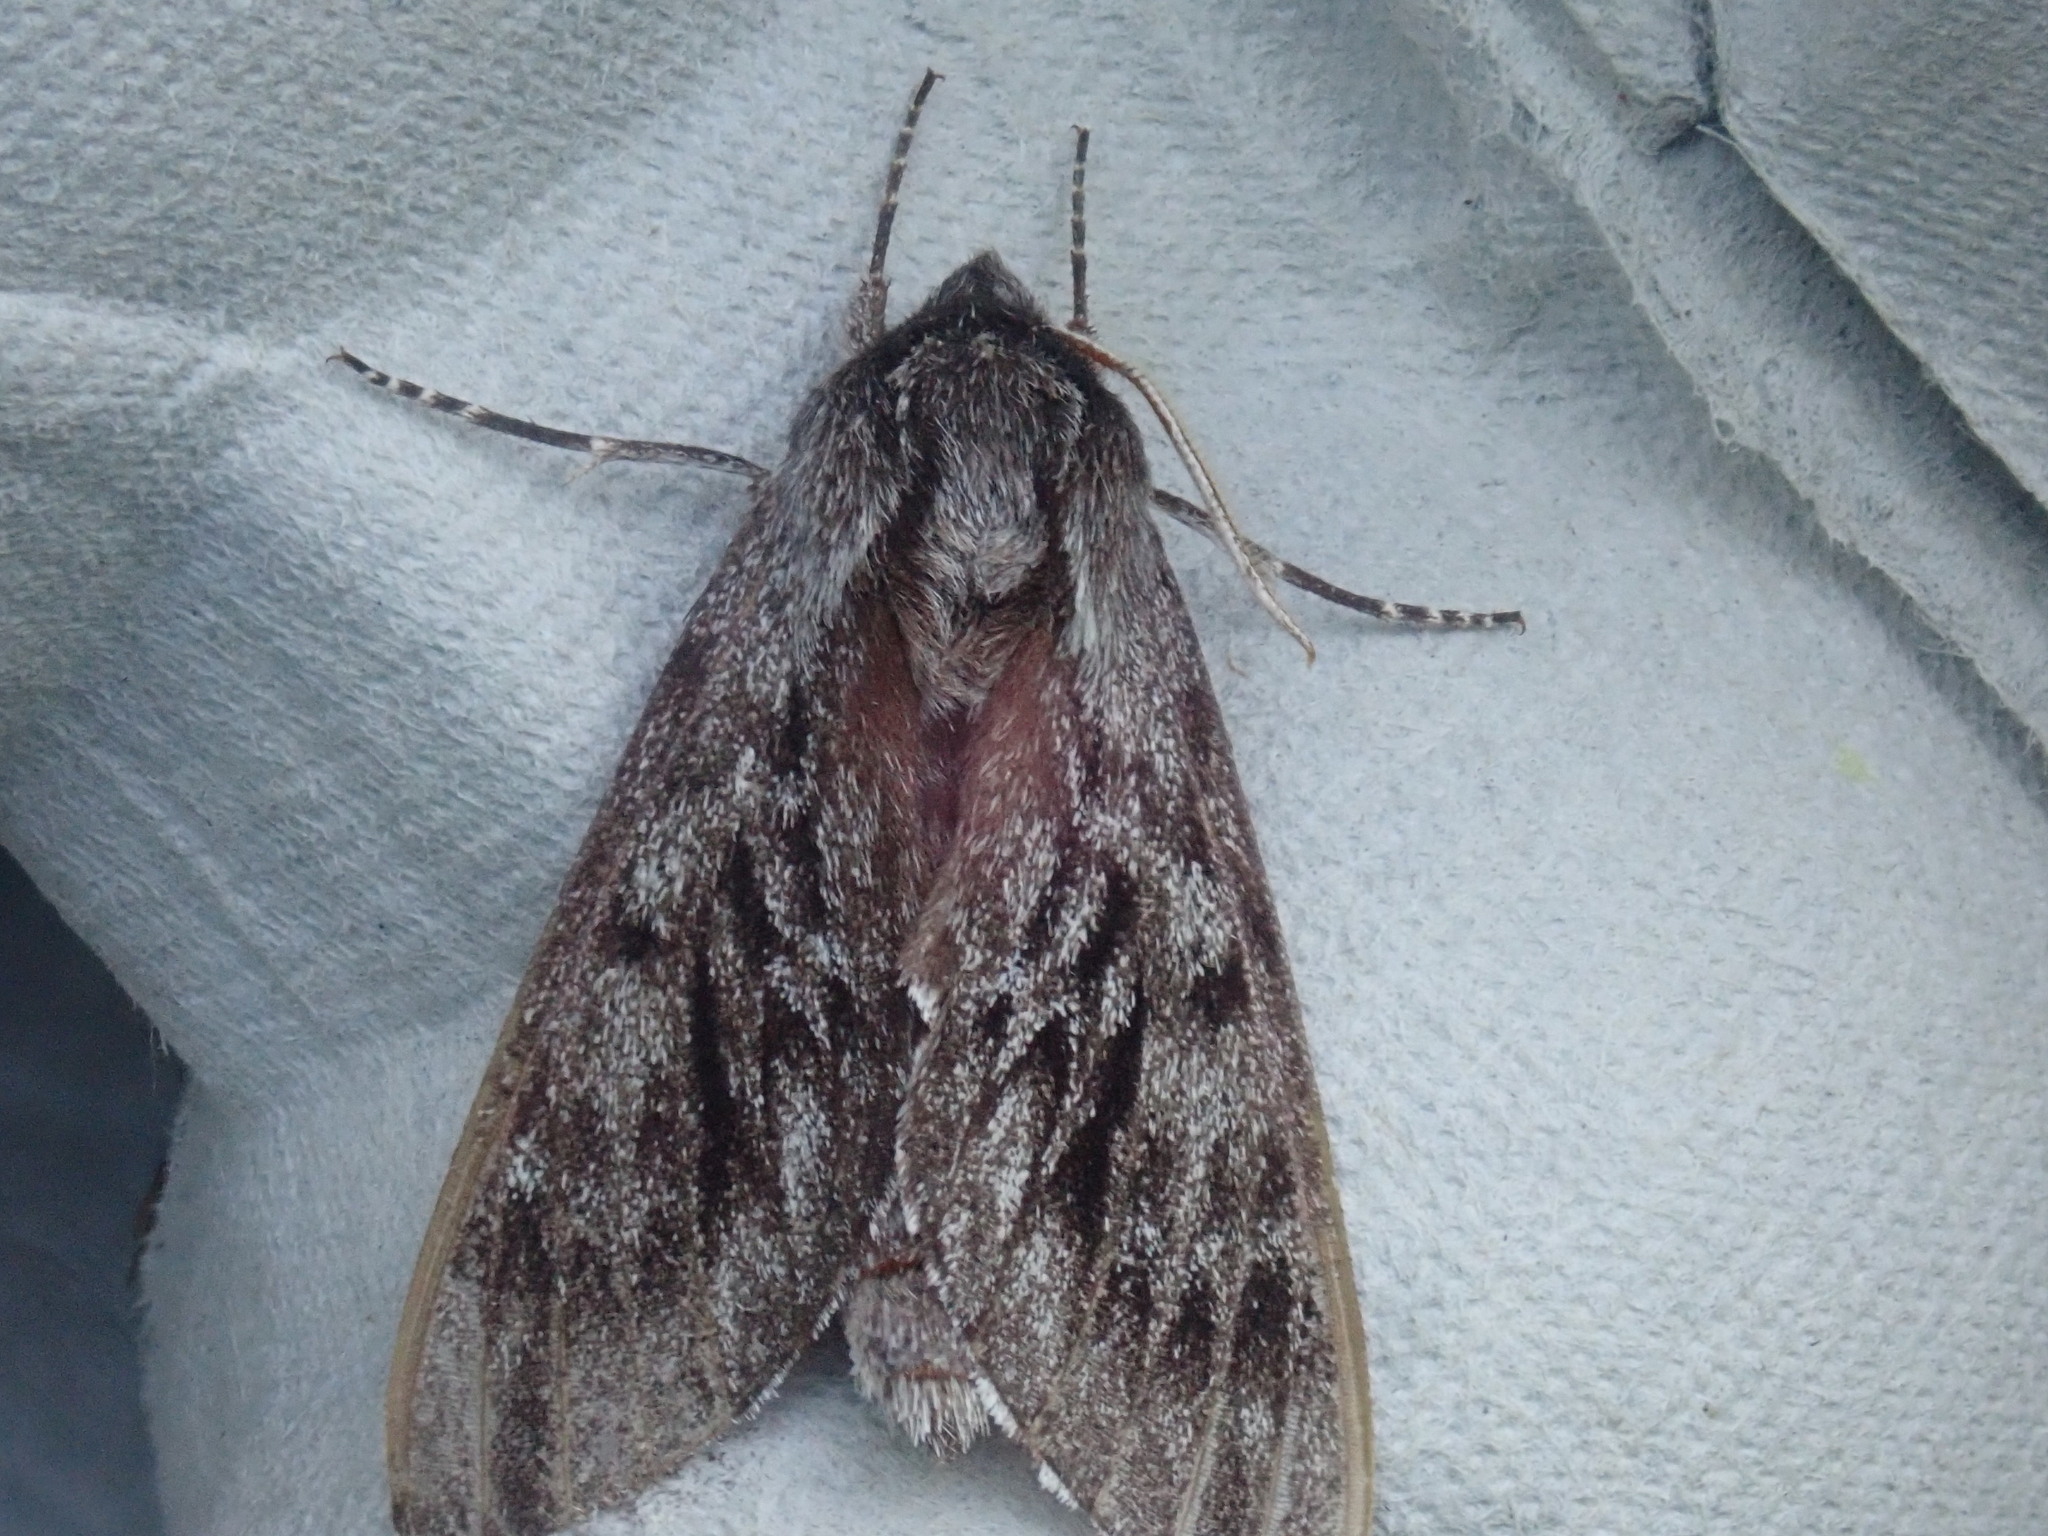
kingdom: Animalia
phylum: Arthropoda
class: Insecta
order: Lepidoptera
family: Sphingidae
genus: Lapara
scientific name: Lapara bombycoides
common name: Northern pine sphinx
